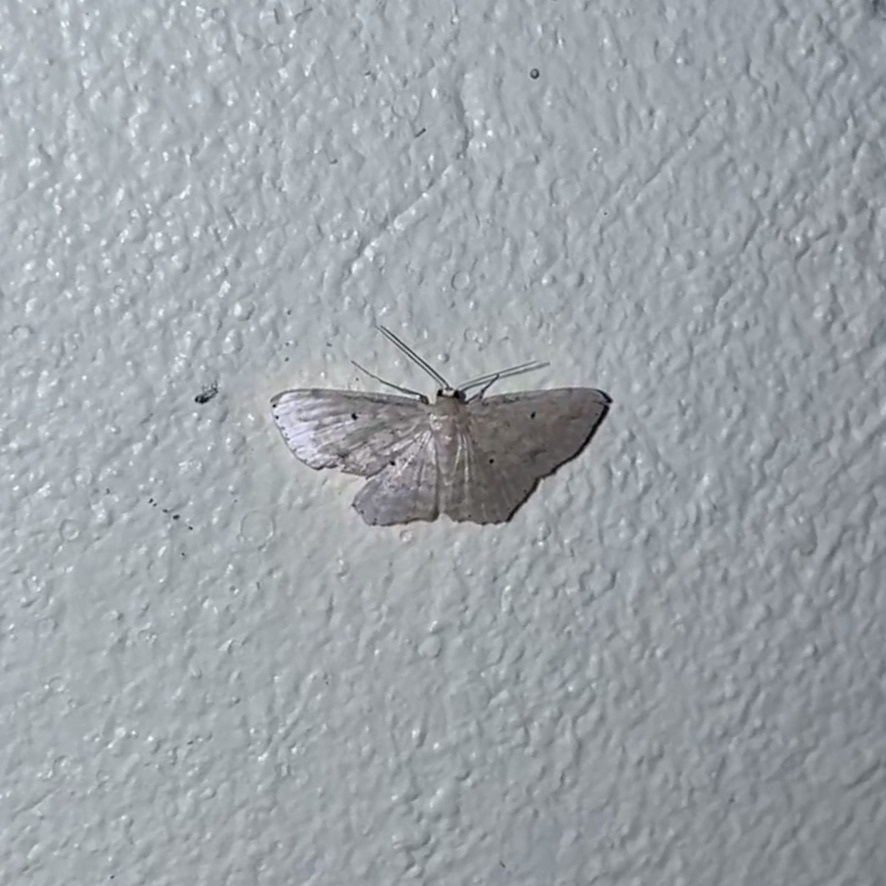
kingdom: Animalia
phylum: Arthropoda
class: Insecta
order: Lepidoptera
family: Geometridae
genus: Scopula
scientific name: Scopula apparitaria
